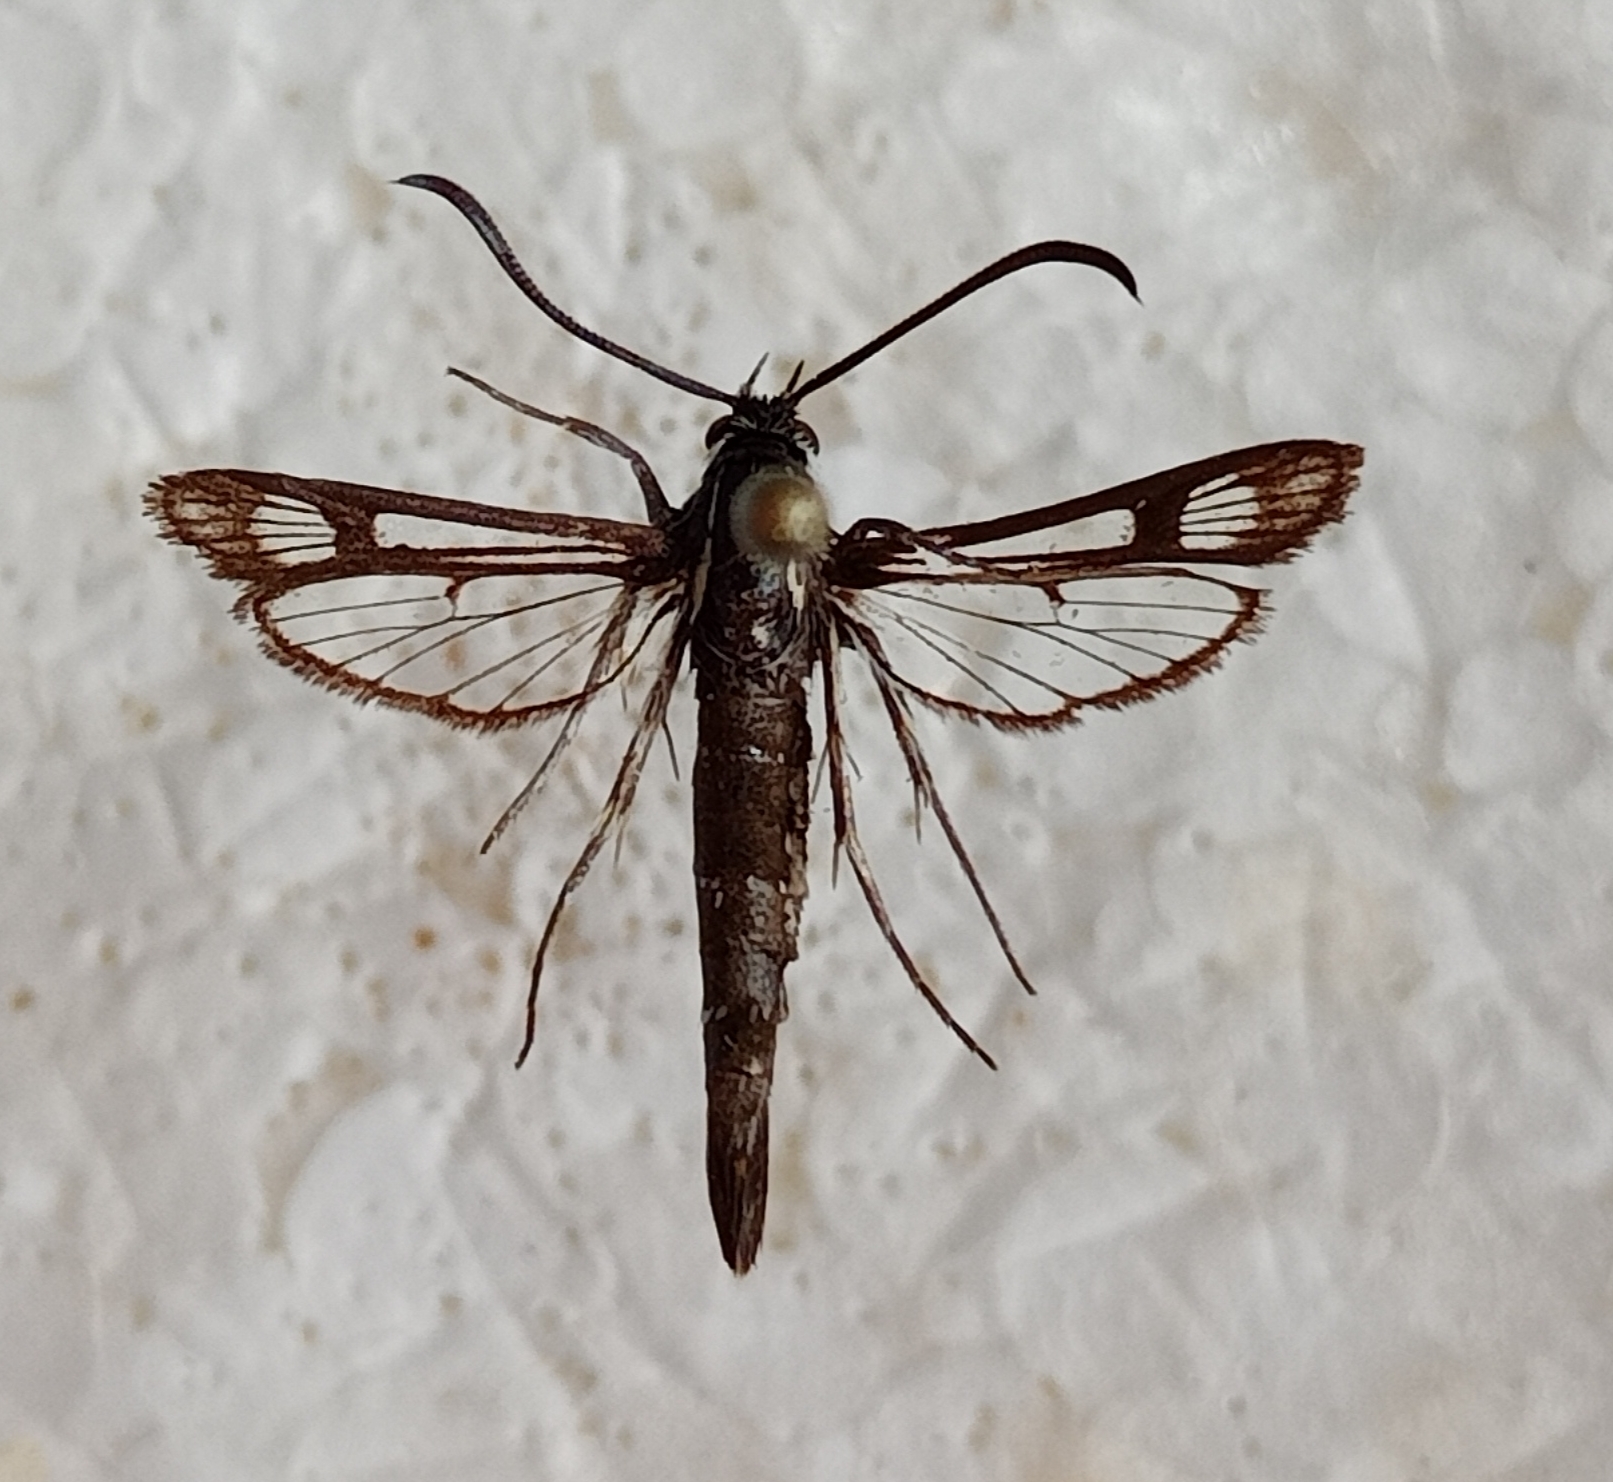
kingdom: Animalia
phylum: Arthropoda
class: Insecta
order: Lepidoptera
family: Sesiidae
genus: Pyropteron
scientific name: Pyropteron leucomelaena
